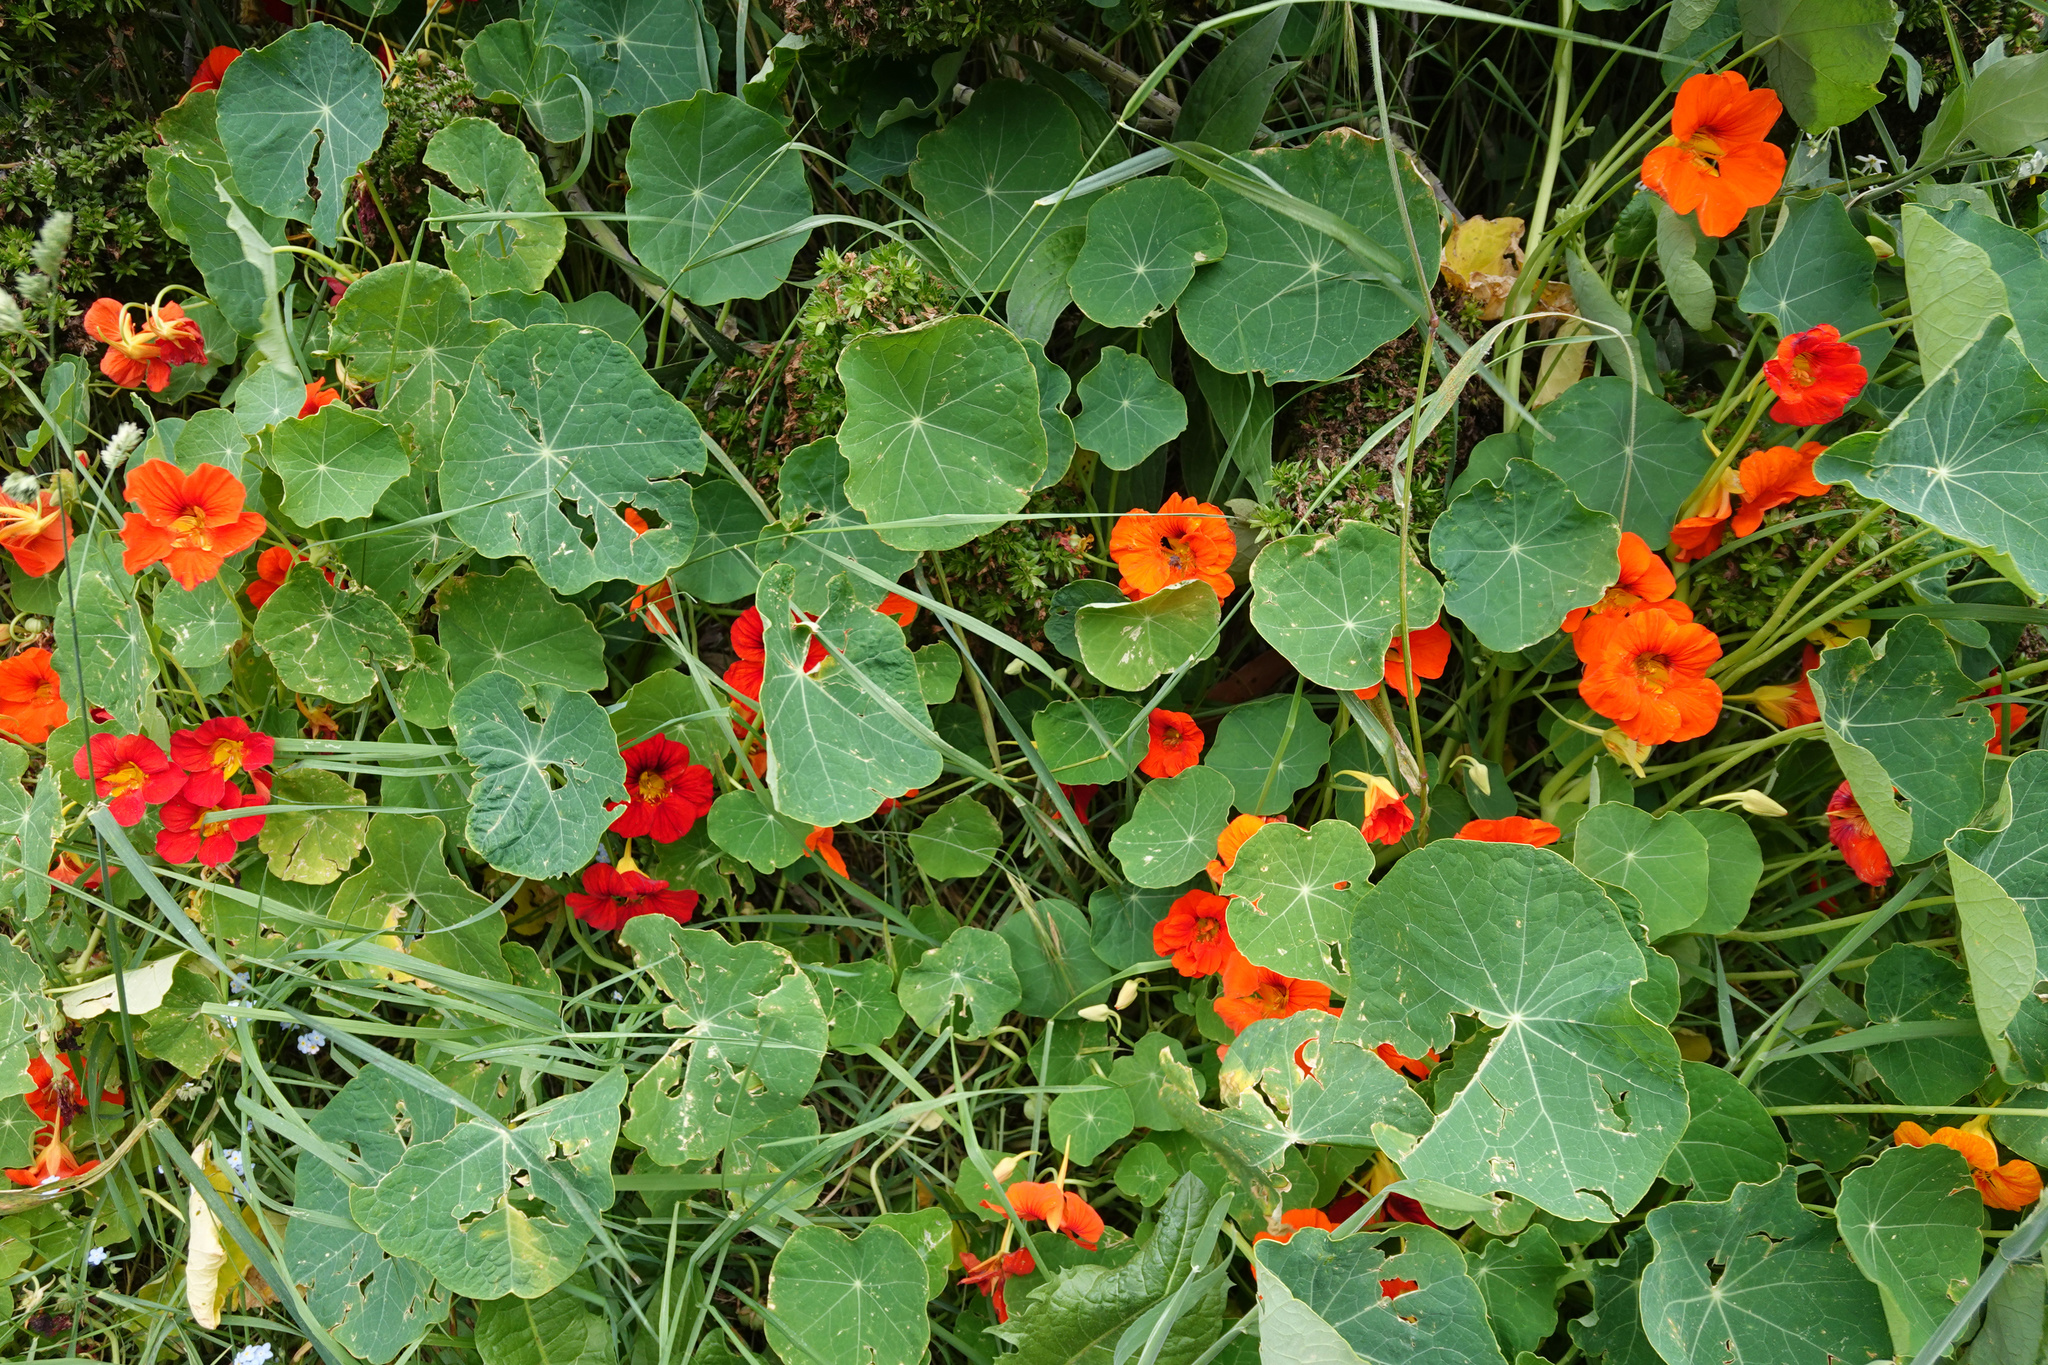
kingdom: Plantae
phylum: Tracheophyta
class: Magnoliopsida
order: Brassicales
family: Tropaeolaceae
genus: Tropaeolum
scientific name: Tropaeolum majus
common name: Nasturtium
